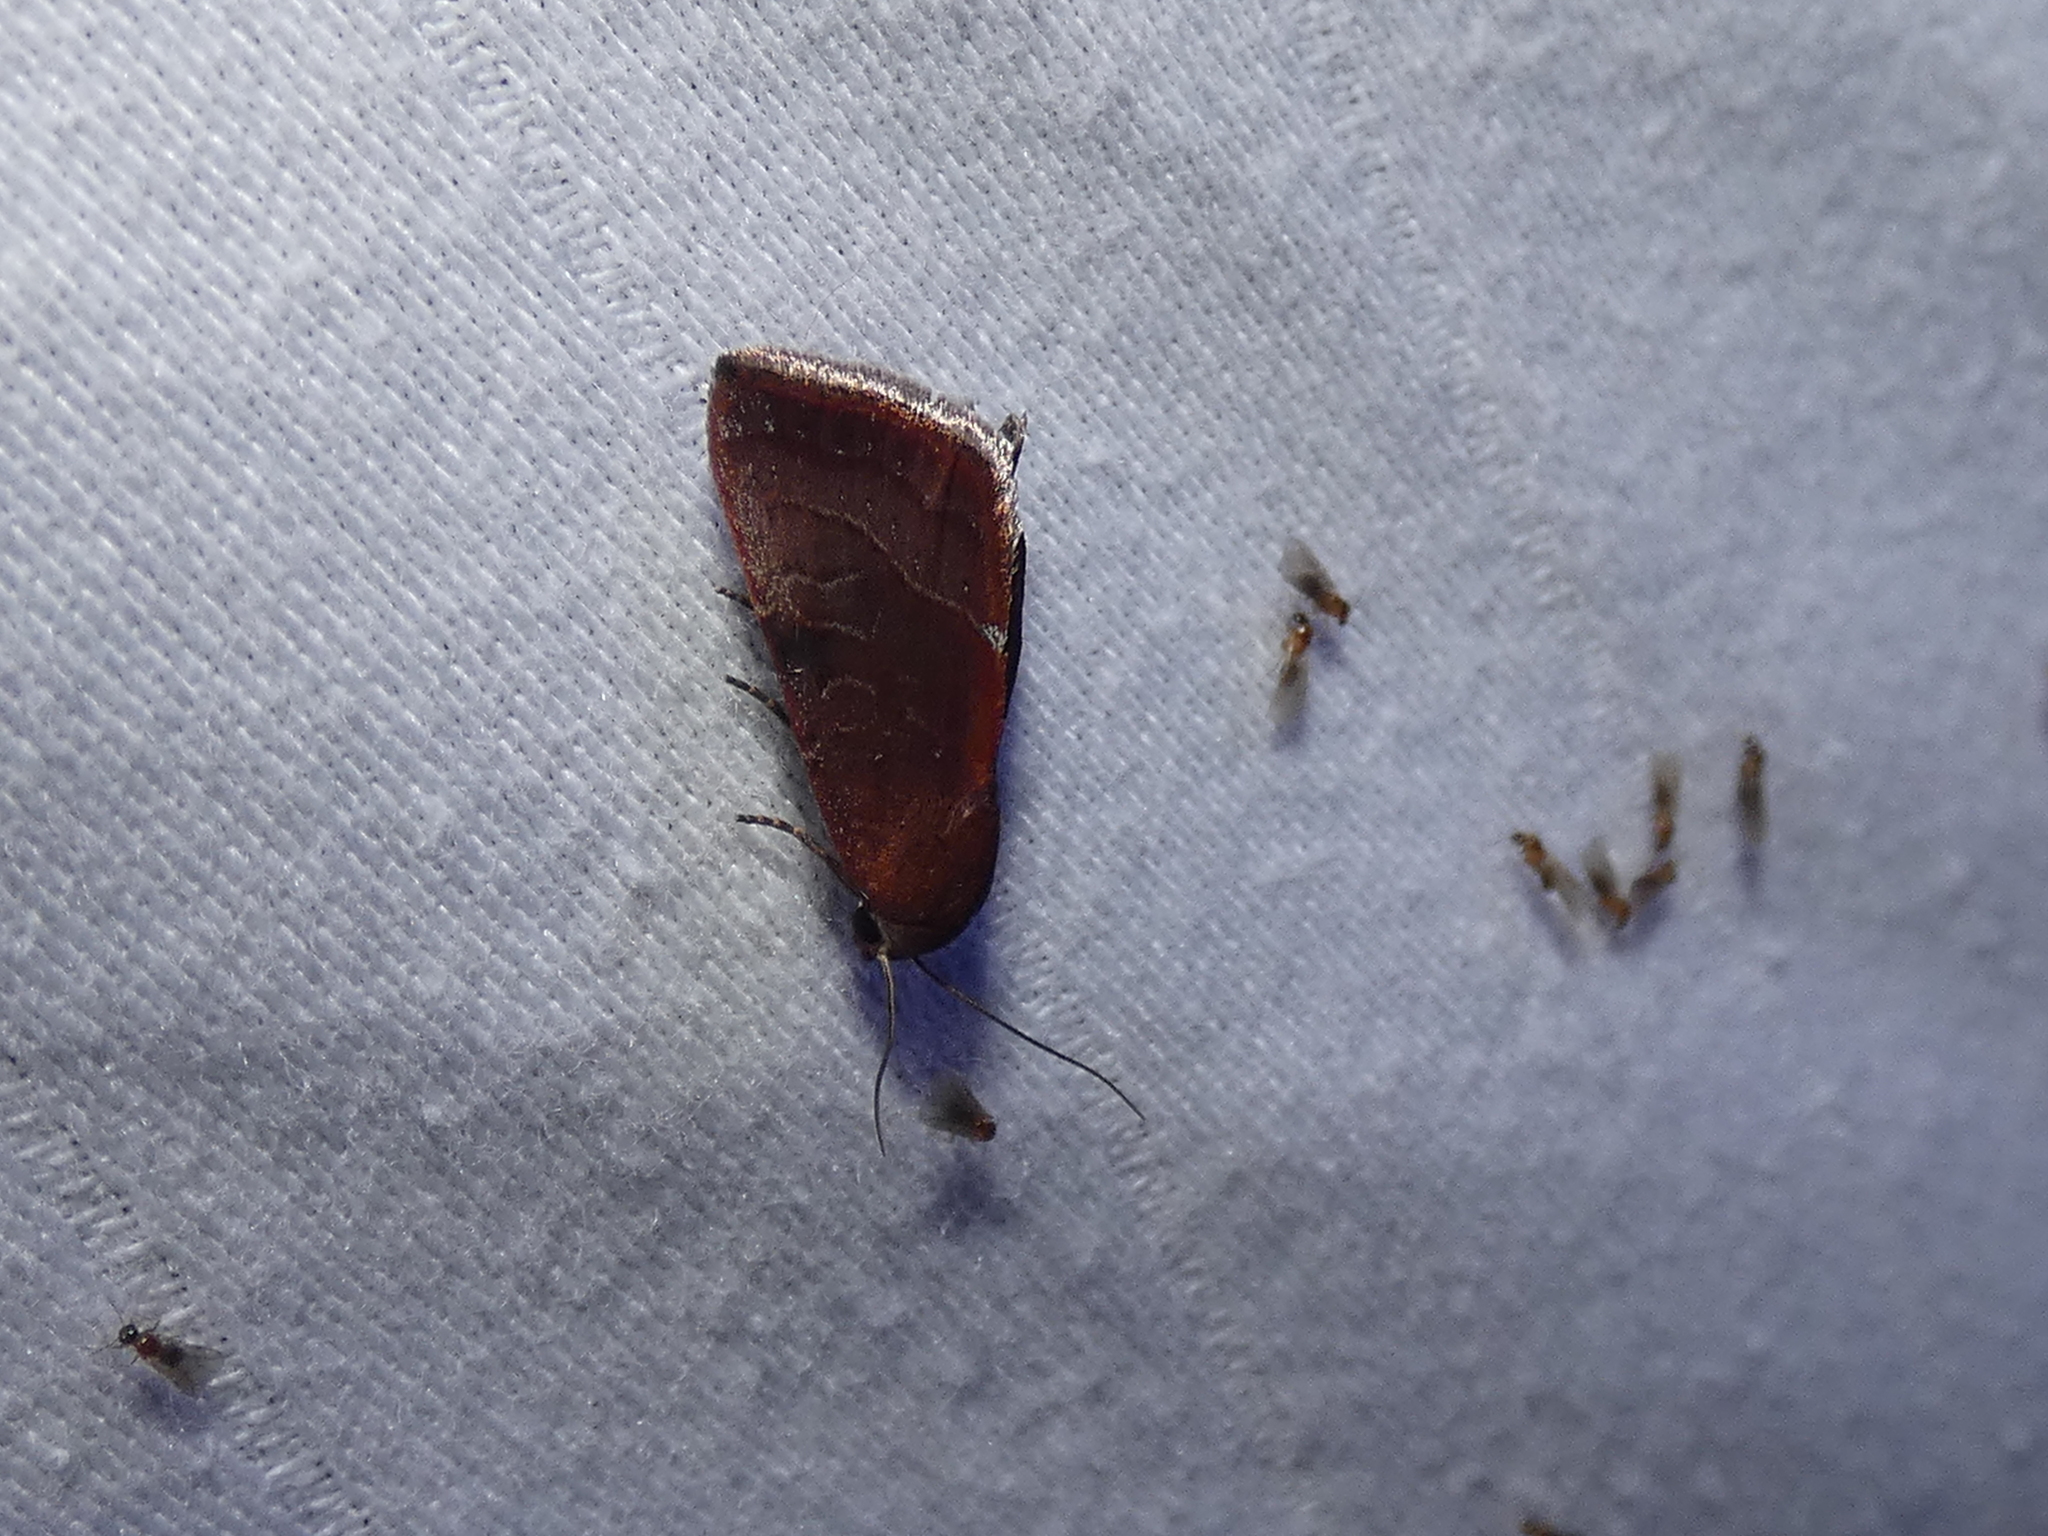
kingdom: Animalia
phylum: Arthropoda
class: Insecta
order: Lepidoptera
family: Noctuidae
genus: Galgula
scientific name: Galgula partita
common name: Wedgeling
